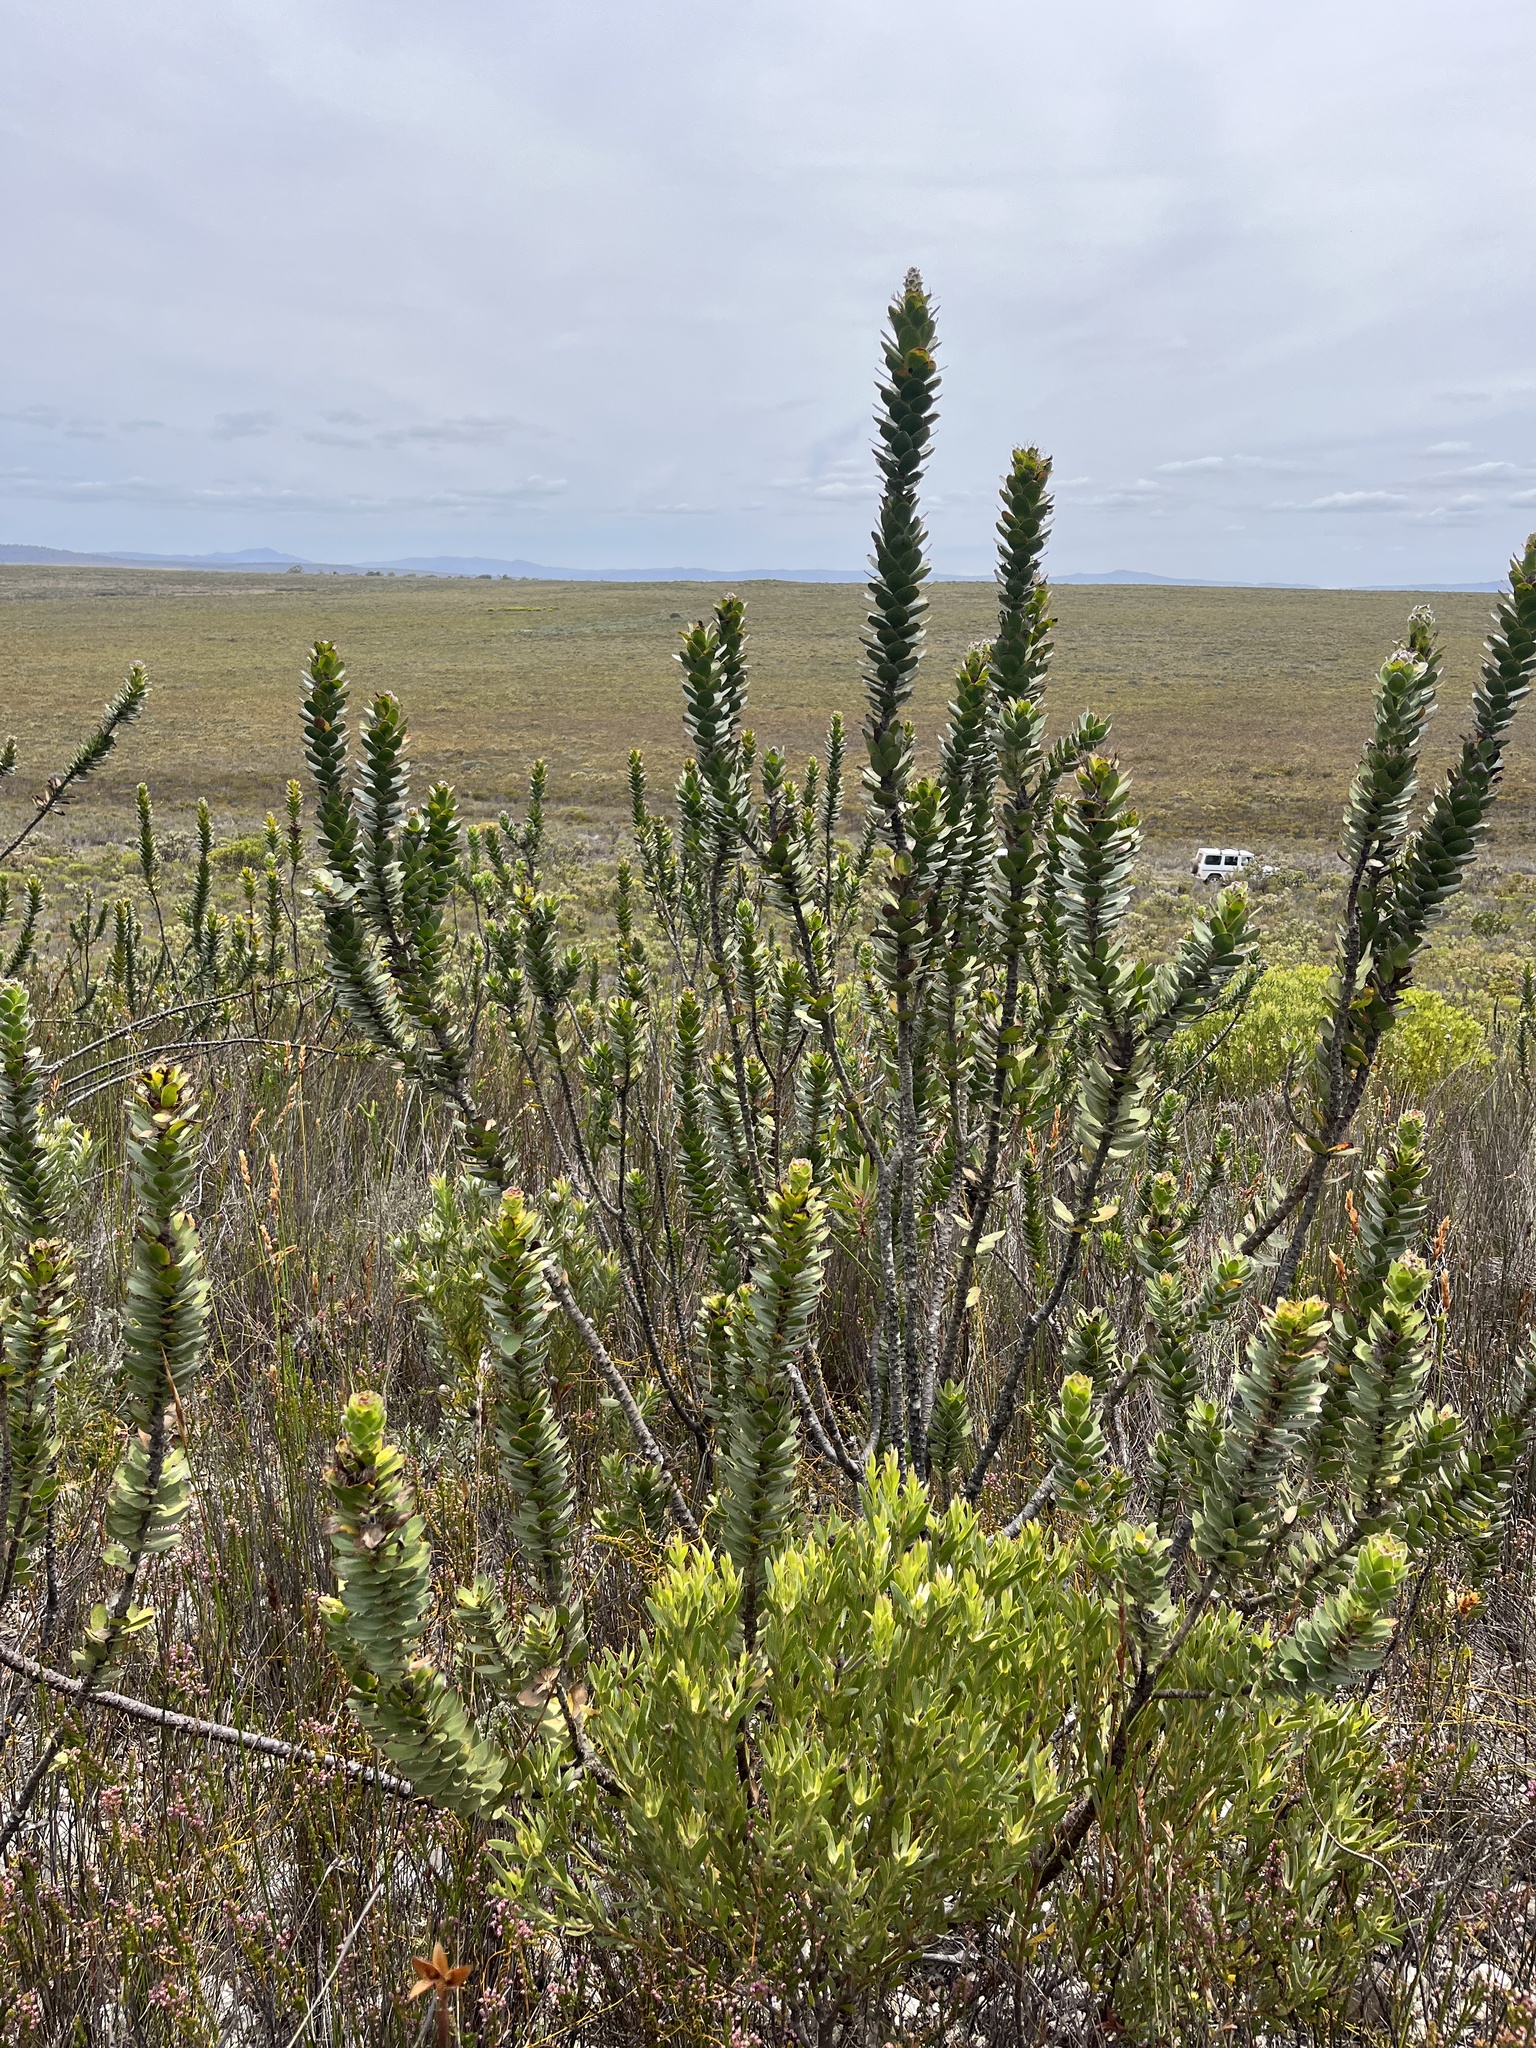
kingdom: Plantae
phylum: Tracheophyta
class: Magnoliopsida
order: Proteales
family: Proteaceae
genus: Mimetes
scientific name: Mimetes saxatilis
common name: Limestone pagoda
